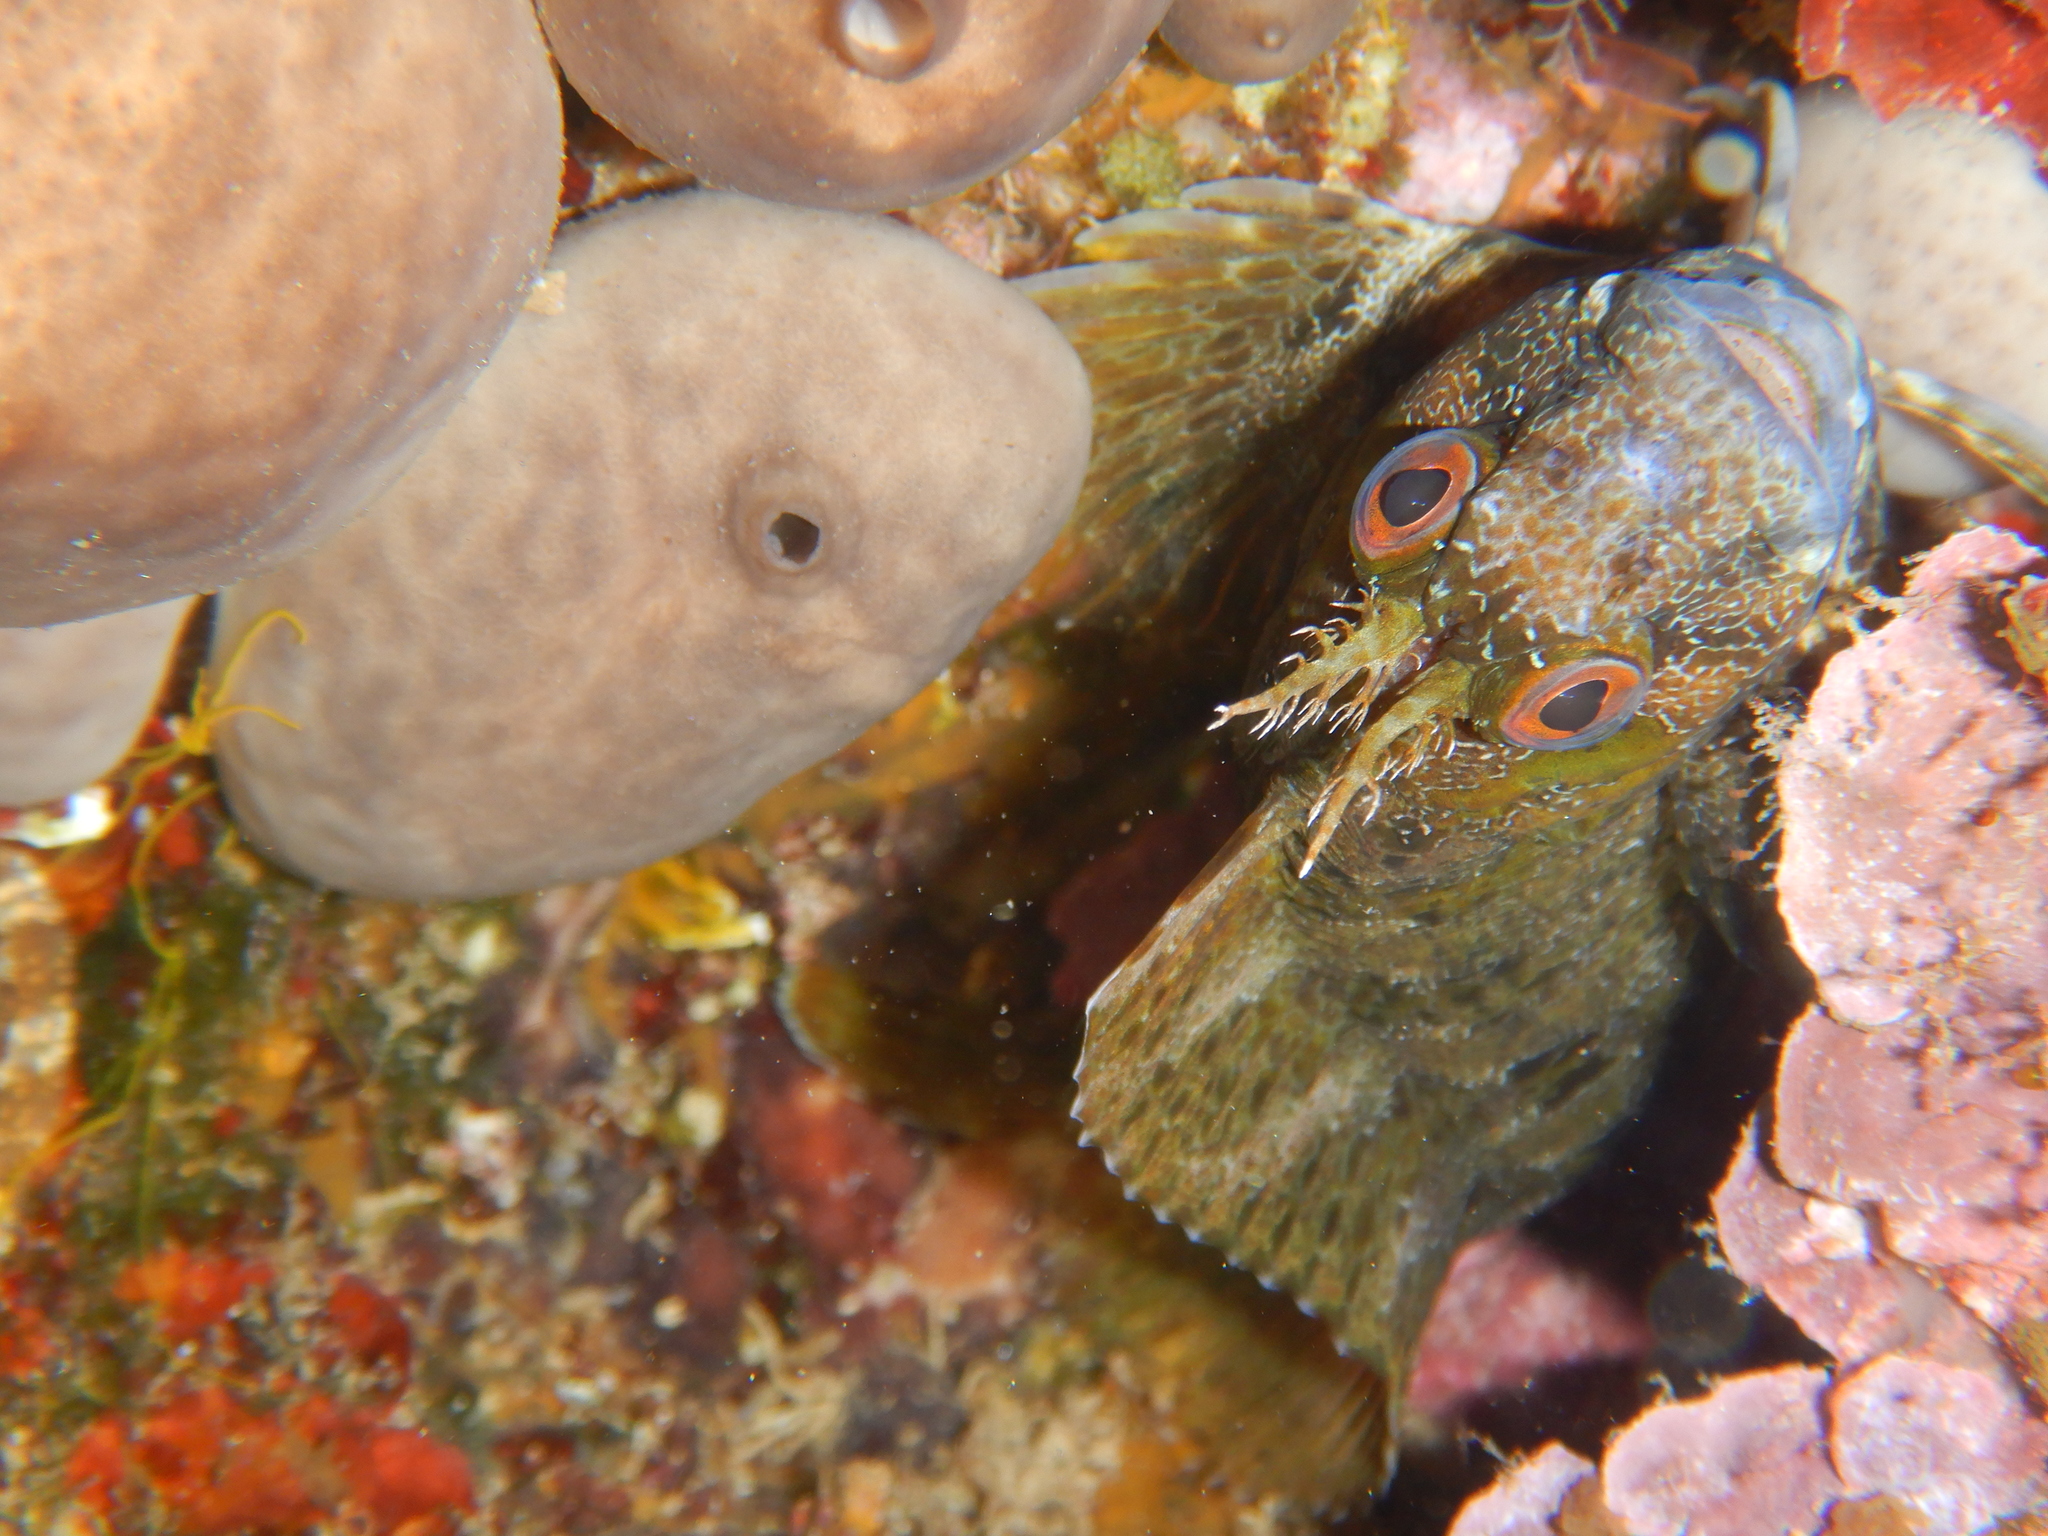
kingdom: Animalia
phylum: Chordata
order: Perciformes
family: Blenniidae
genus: Parablennius
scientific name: Parablennius gattorugine
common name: Tompot blenny
